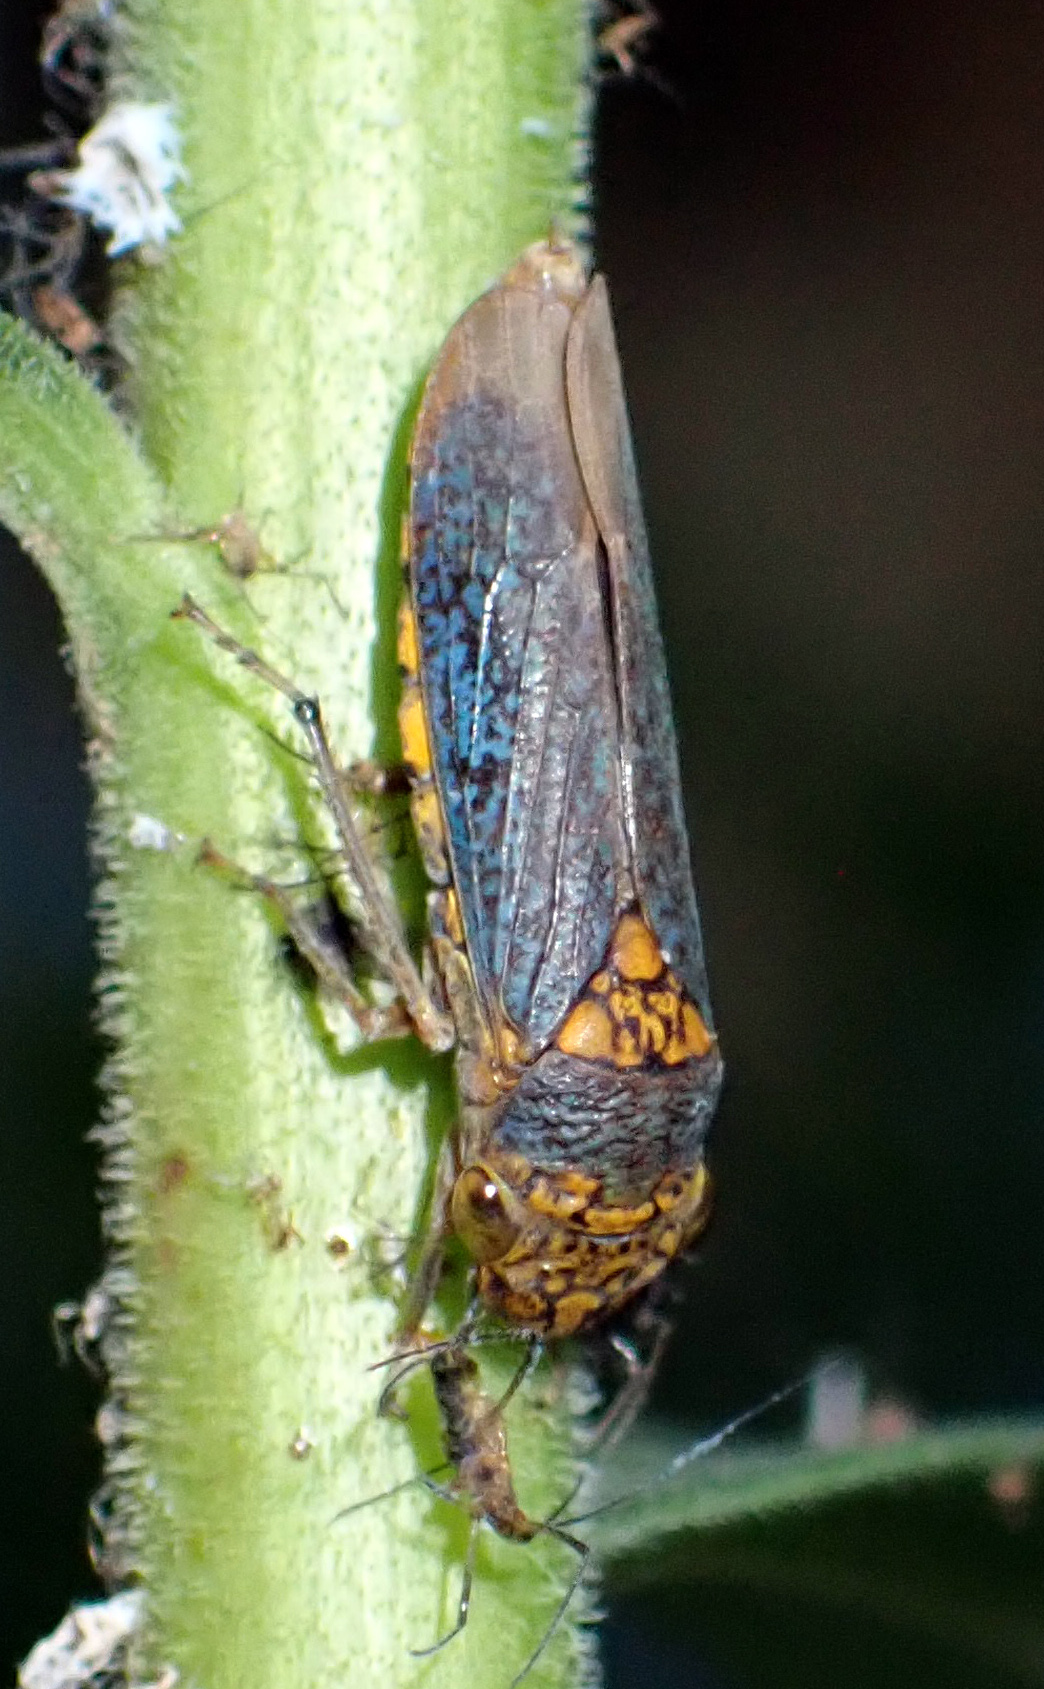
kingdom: Animalia
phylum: Arthropoda
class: Insecta
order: Hemiptera
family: Cicadellidae
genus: Oncometopia
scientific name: Oncometopia orbona
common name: Broad-headed sharpshooter
